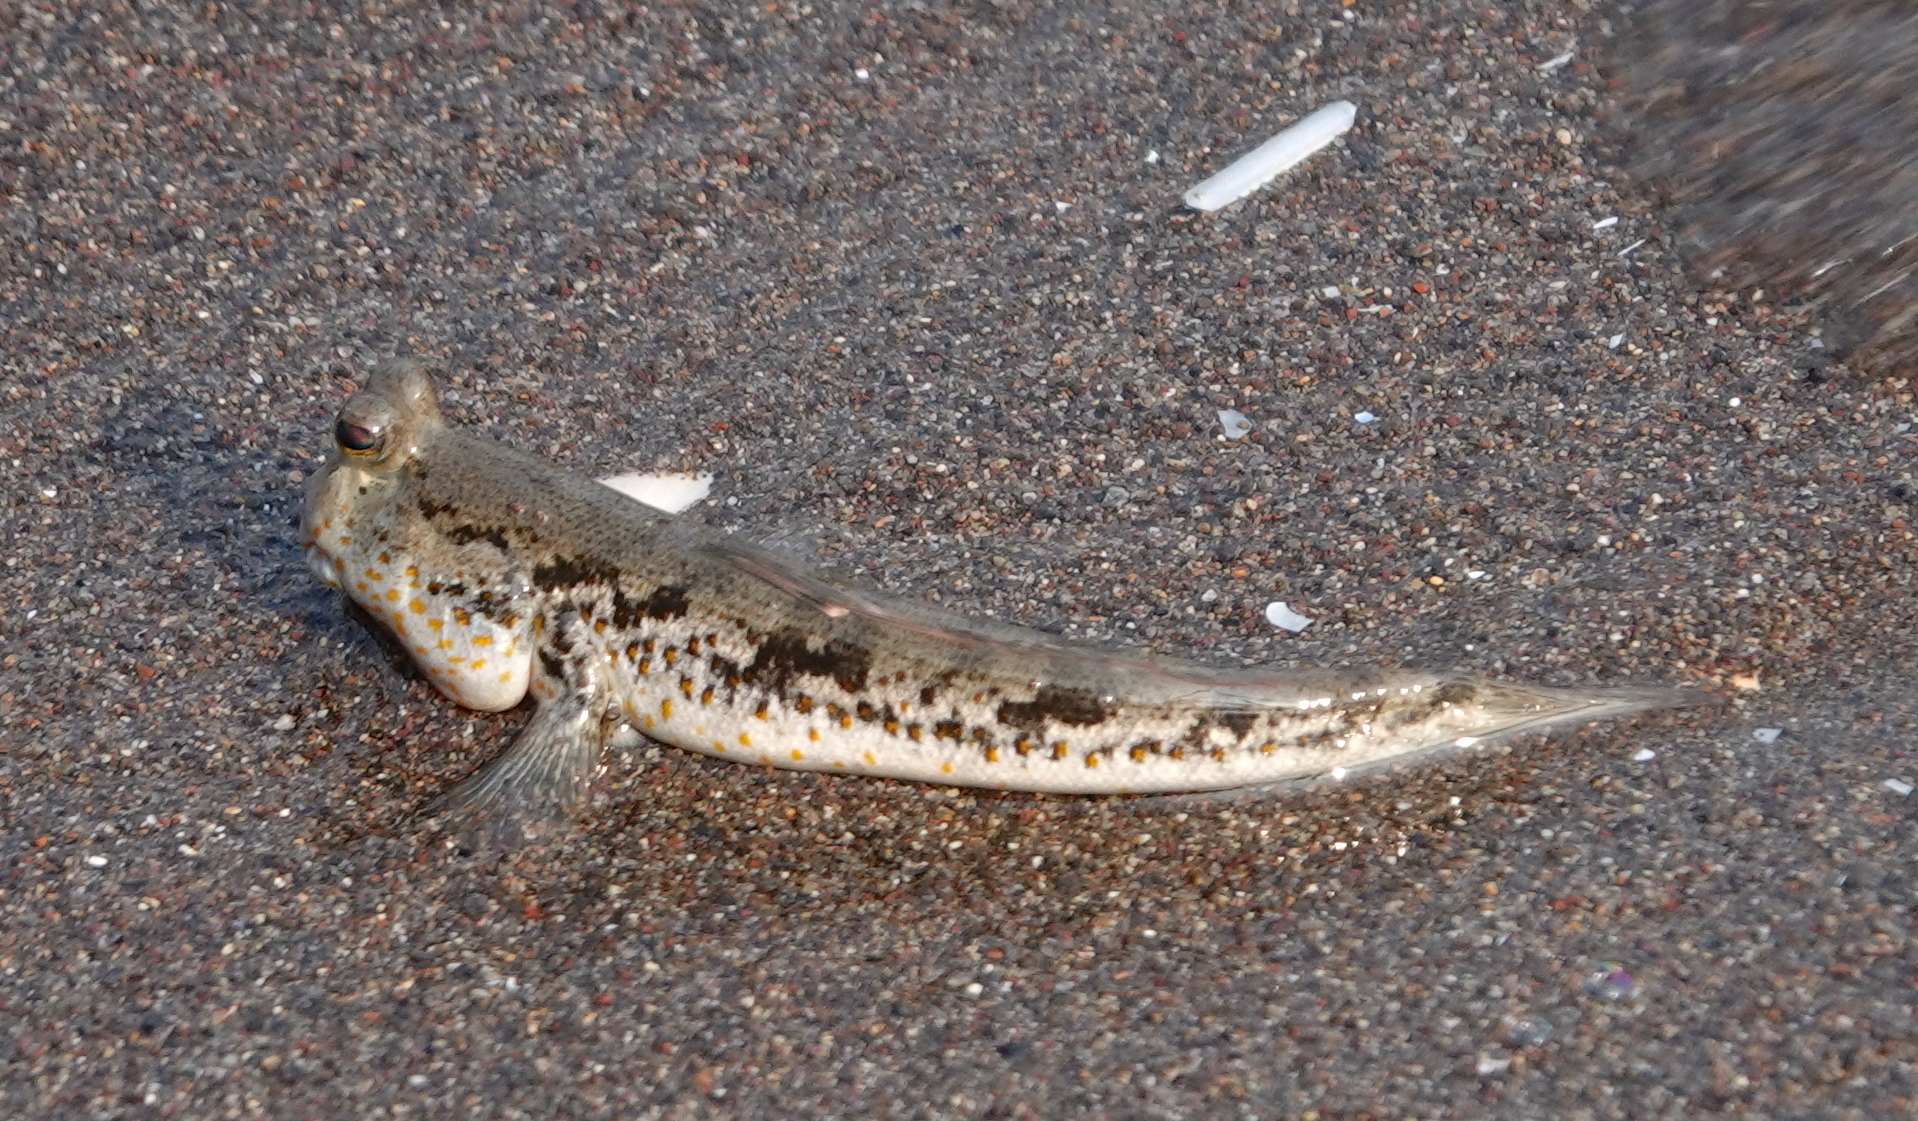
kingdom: Animalia
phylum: Chordata
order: Perciformes
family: Gobiidae
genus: Periophthalmus
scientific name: Periophthalmus chrysospilos
